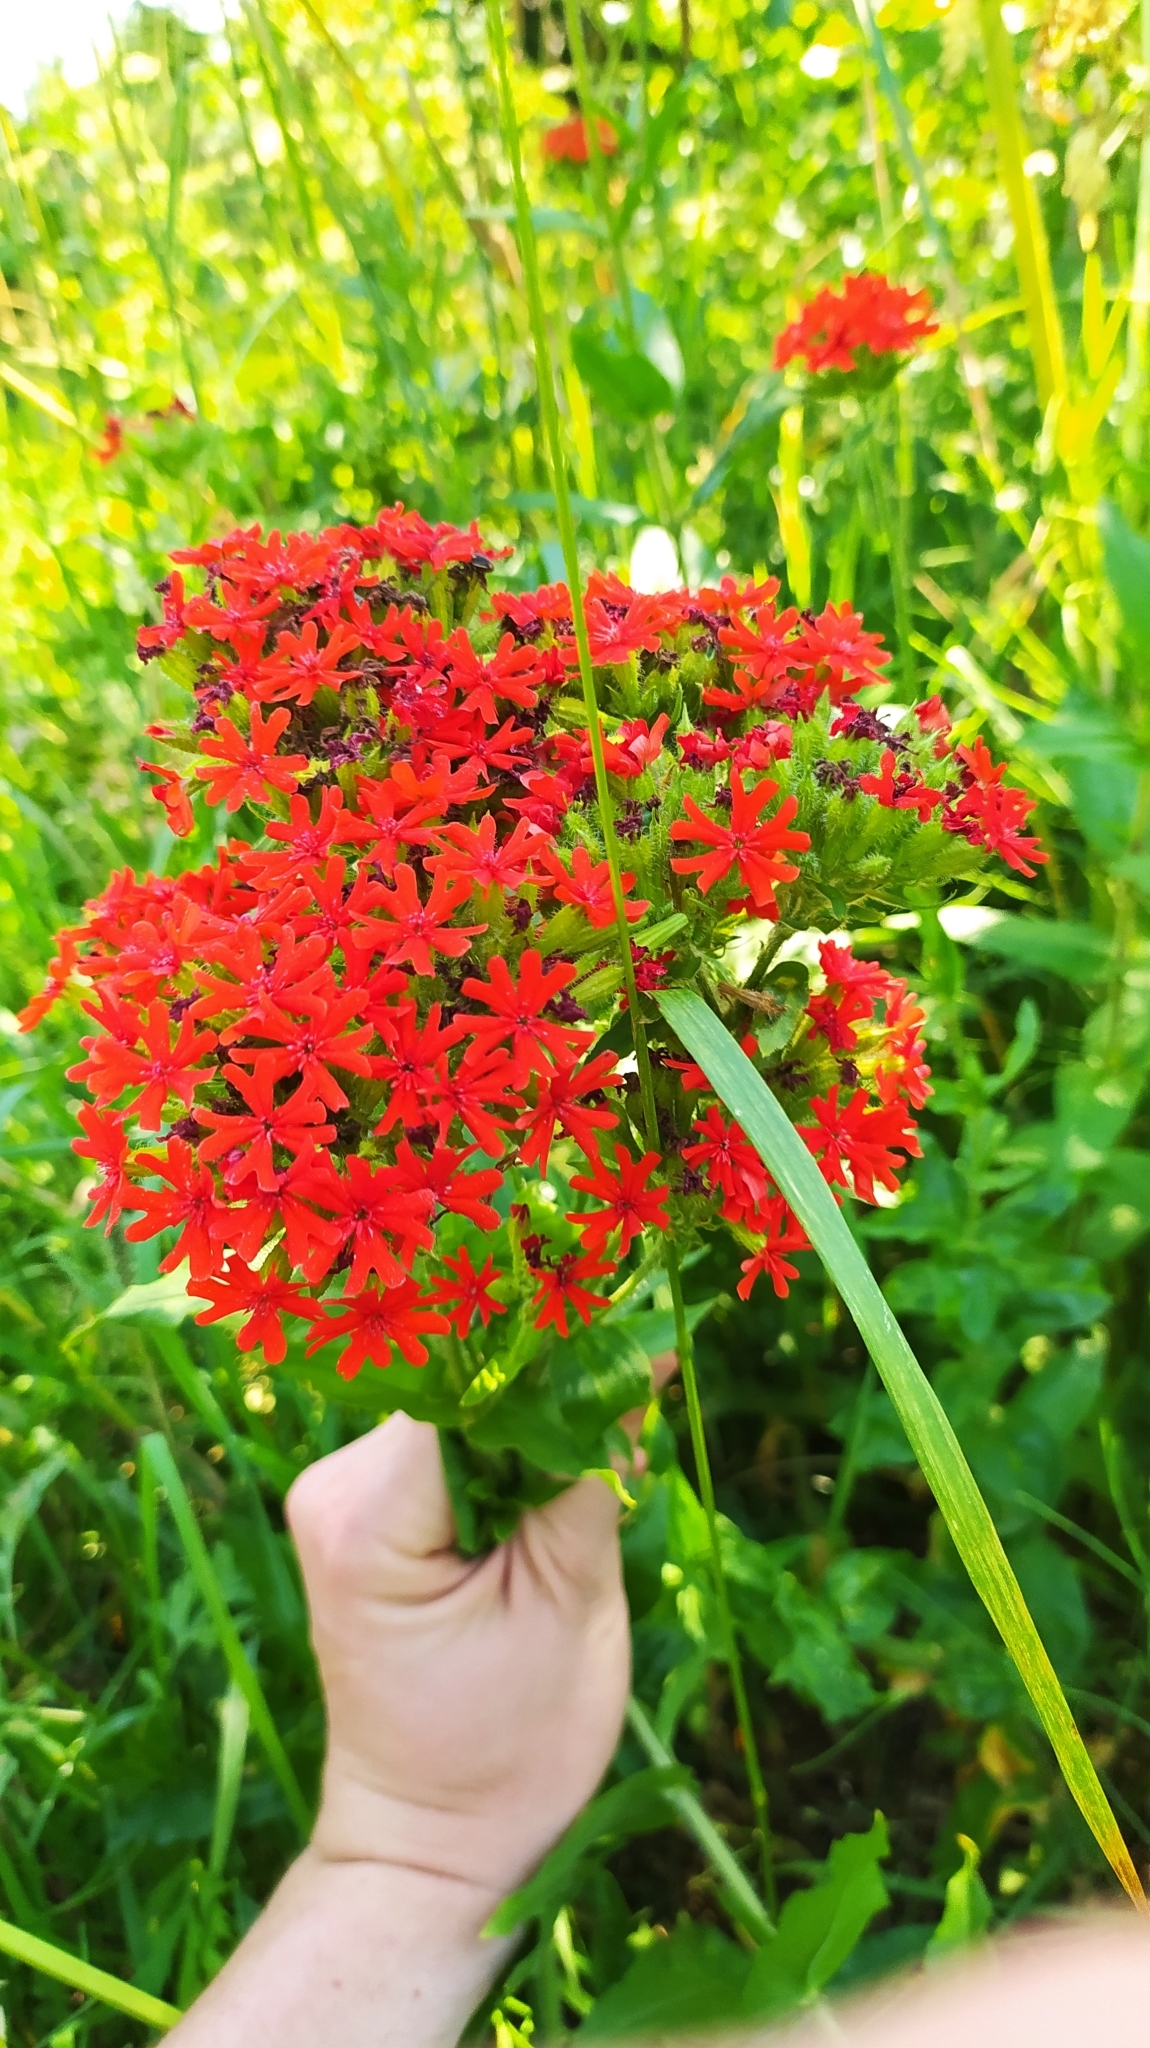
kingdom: Plantae
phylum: Tracheophyta
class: Magnoliopsida
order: Caryophyllales
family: Caryophyllaceae
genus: Silene
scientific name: Silene chalcedonica
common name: Maltese-cross
